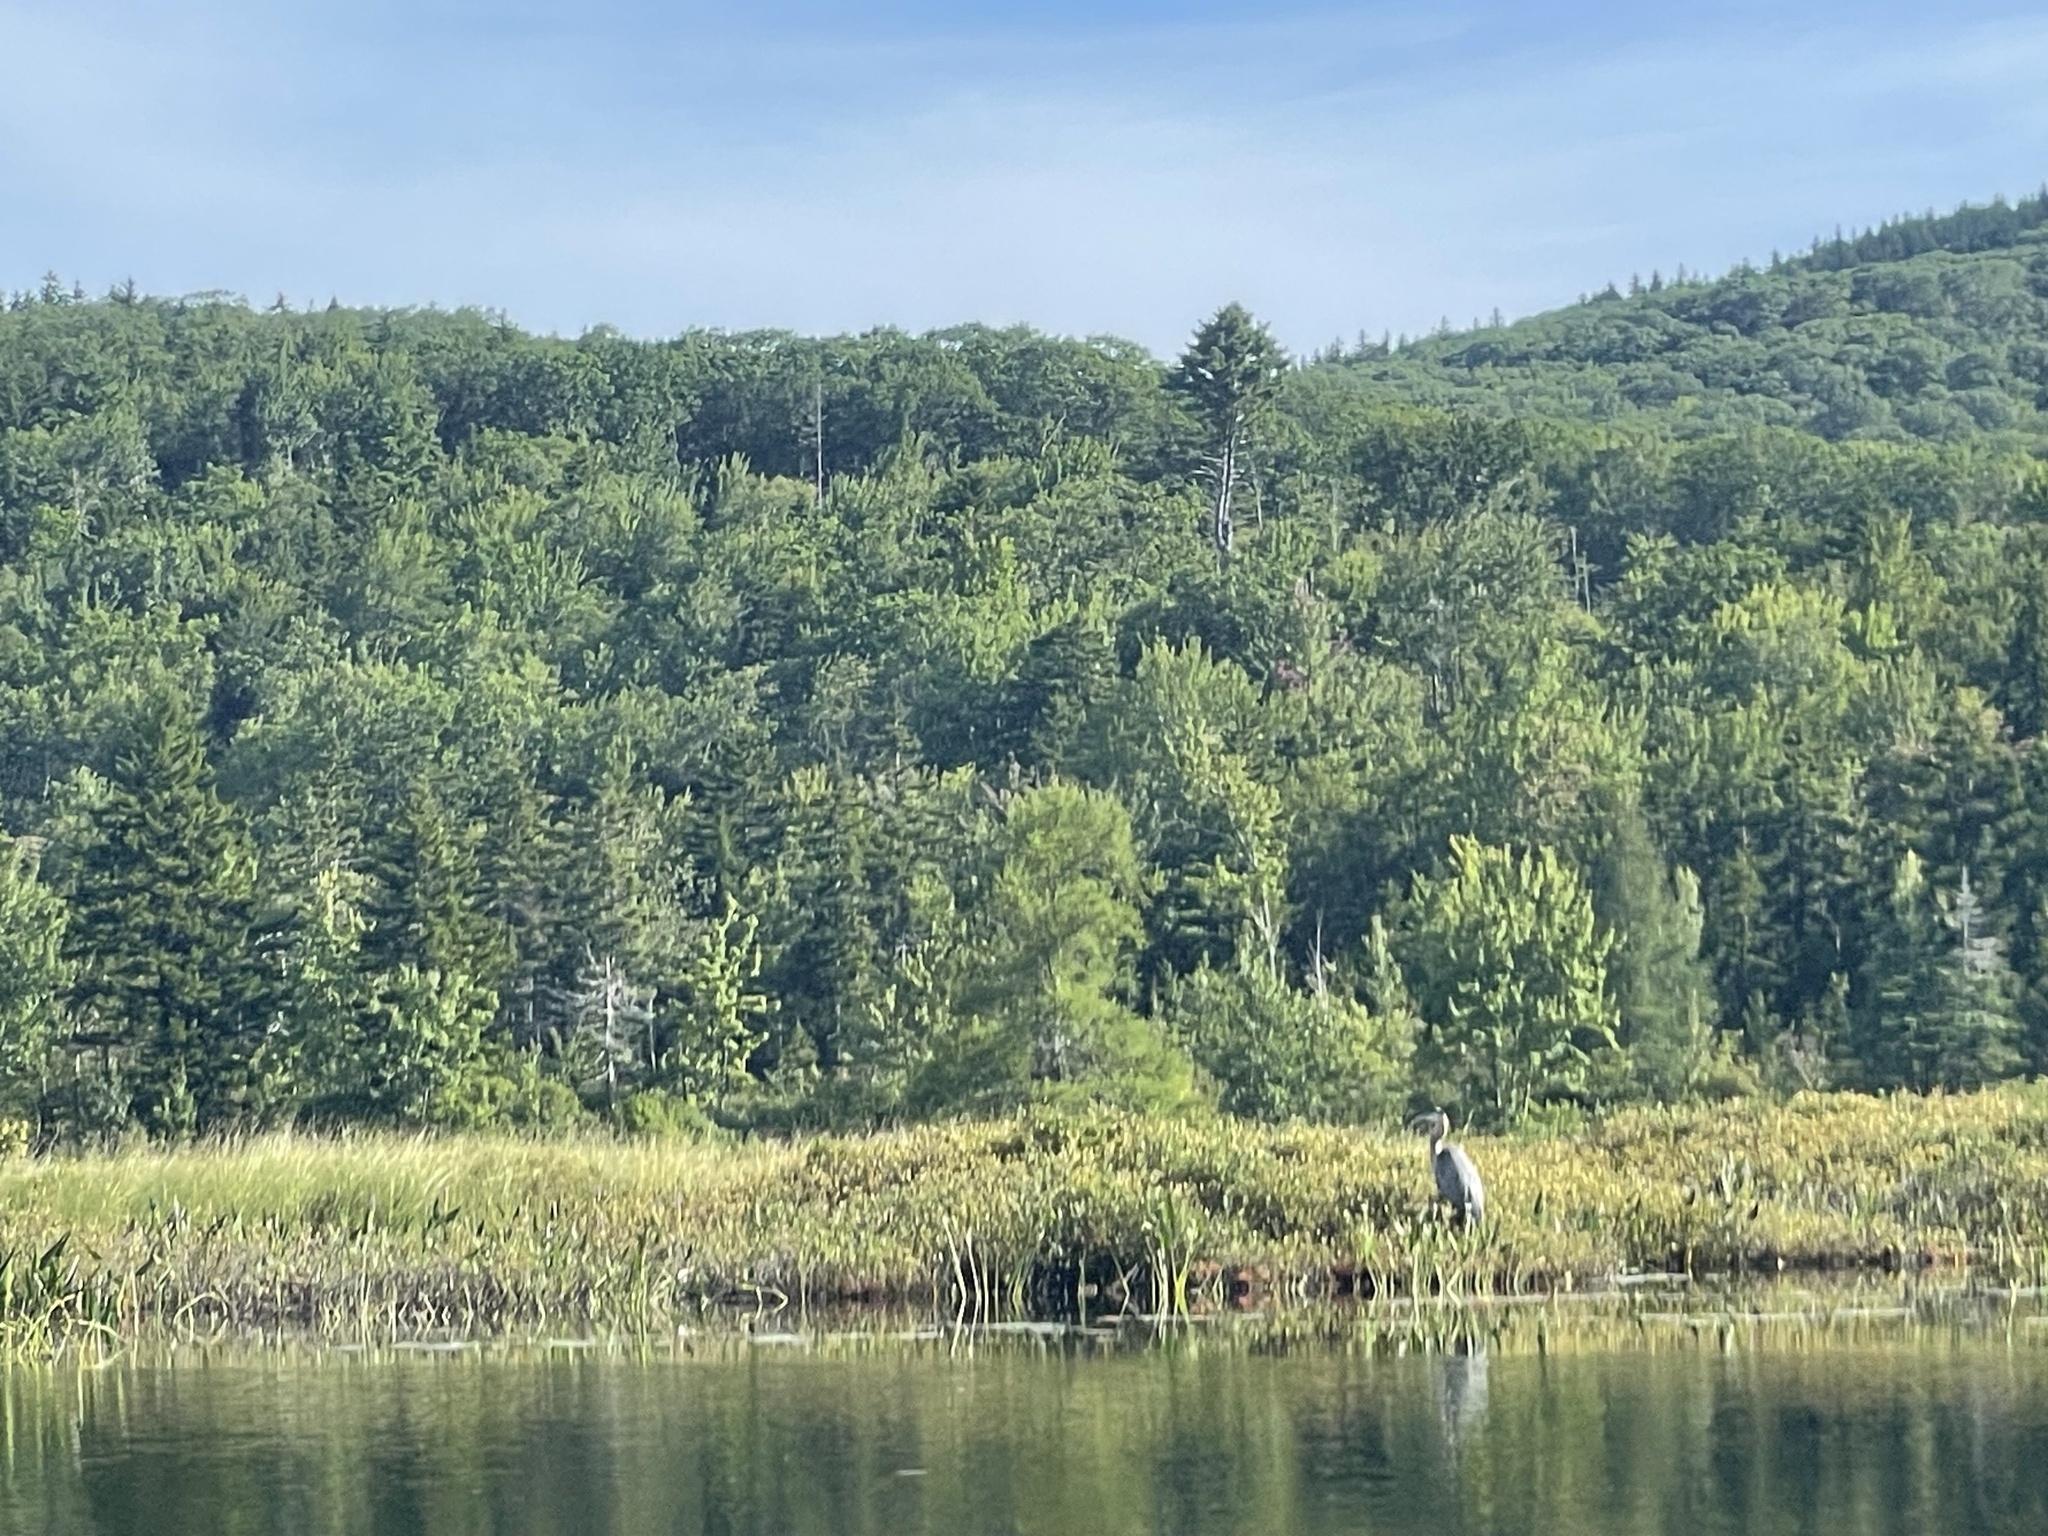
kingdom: Animalia
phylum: Chordata
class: Aves
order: Pelecaniformes
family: Ardeidae
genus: Ardea
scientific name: Ardea herodias
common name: Great blue heron
